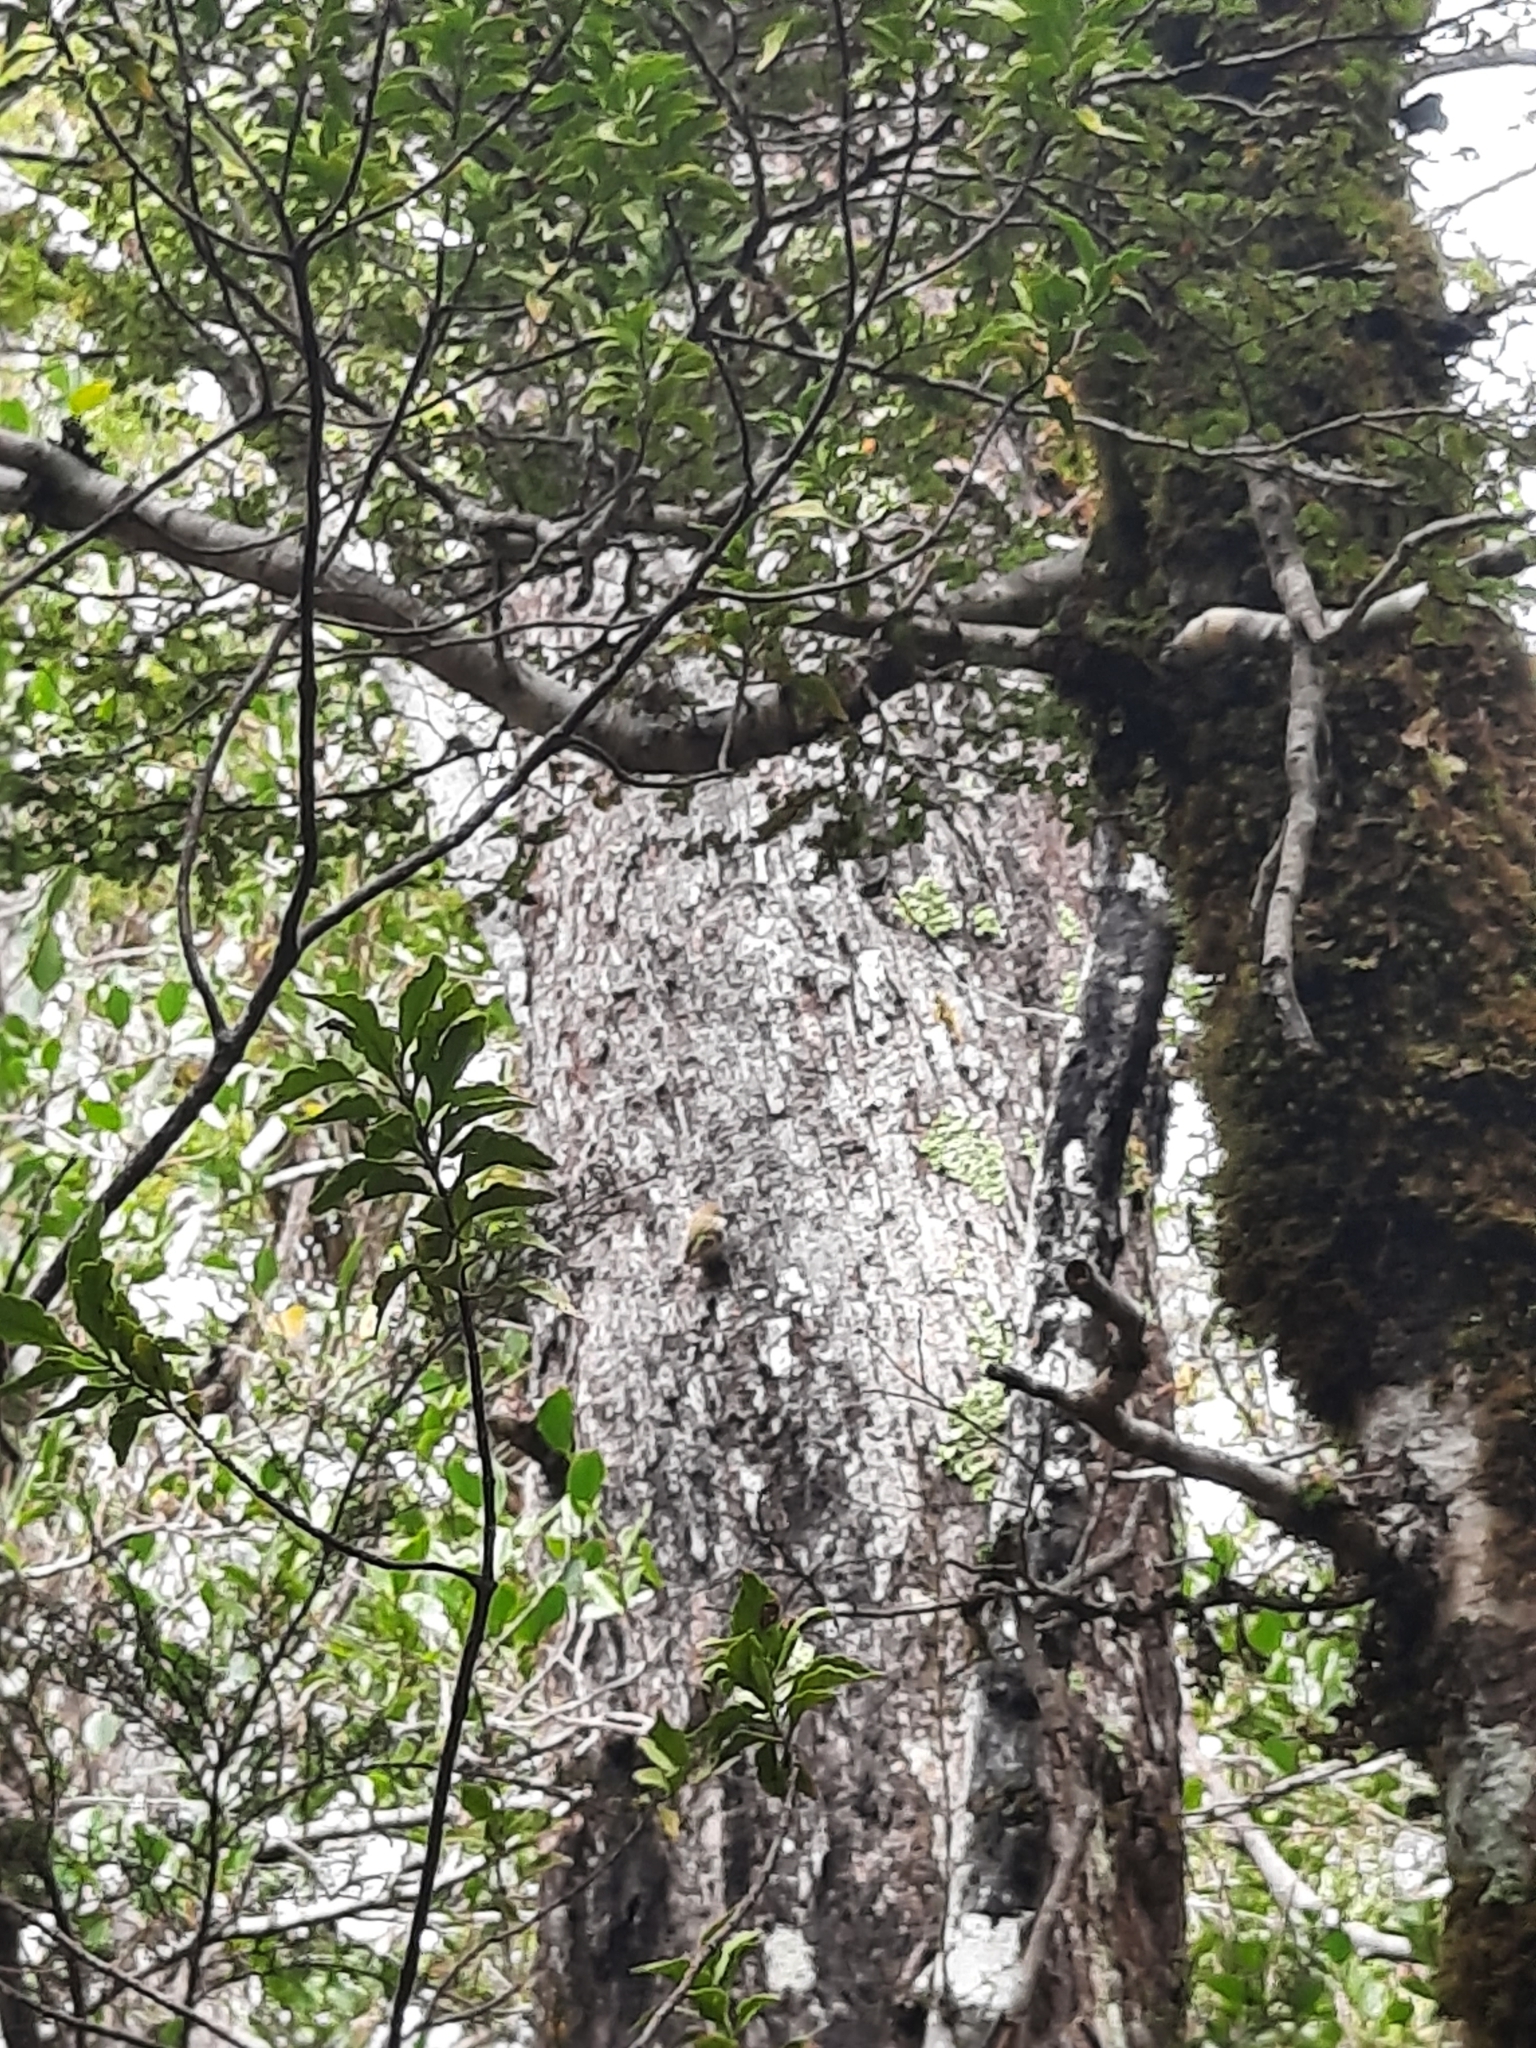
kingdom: Animalia
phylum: Chordata
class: Aves
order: Passeriformes
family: Acanthisittidae
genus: Acanthisitta
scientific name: Acanthisitta chloris
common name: Rifleman
